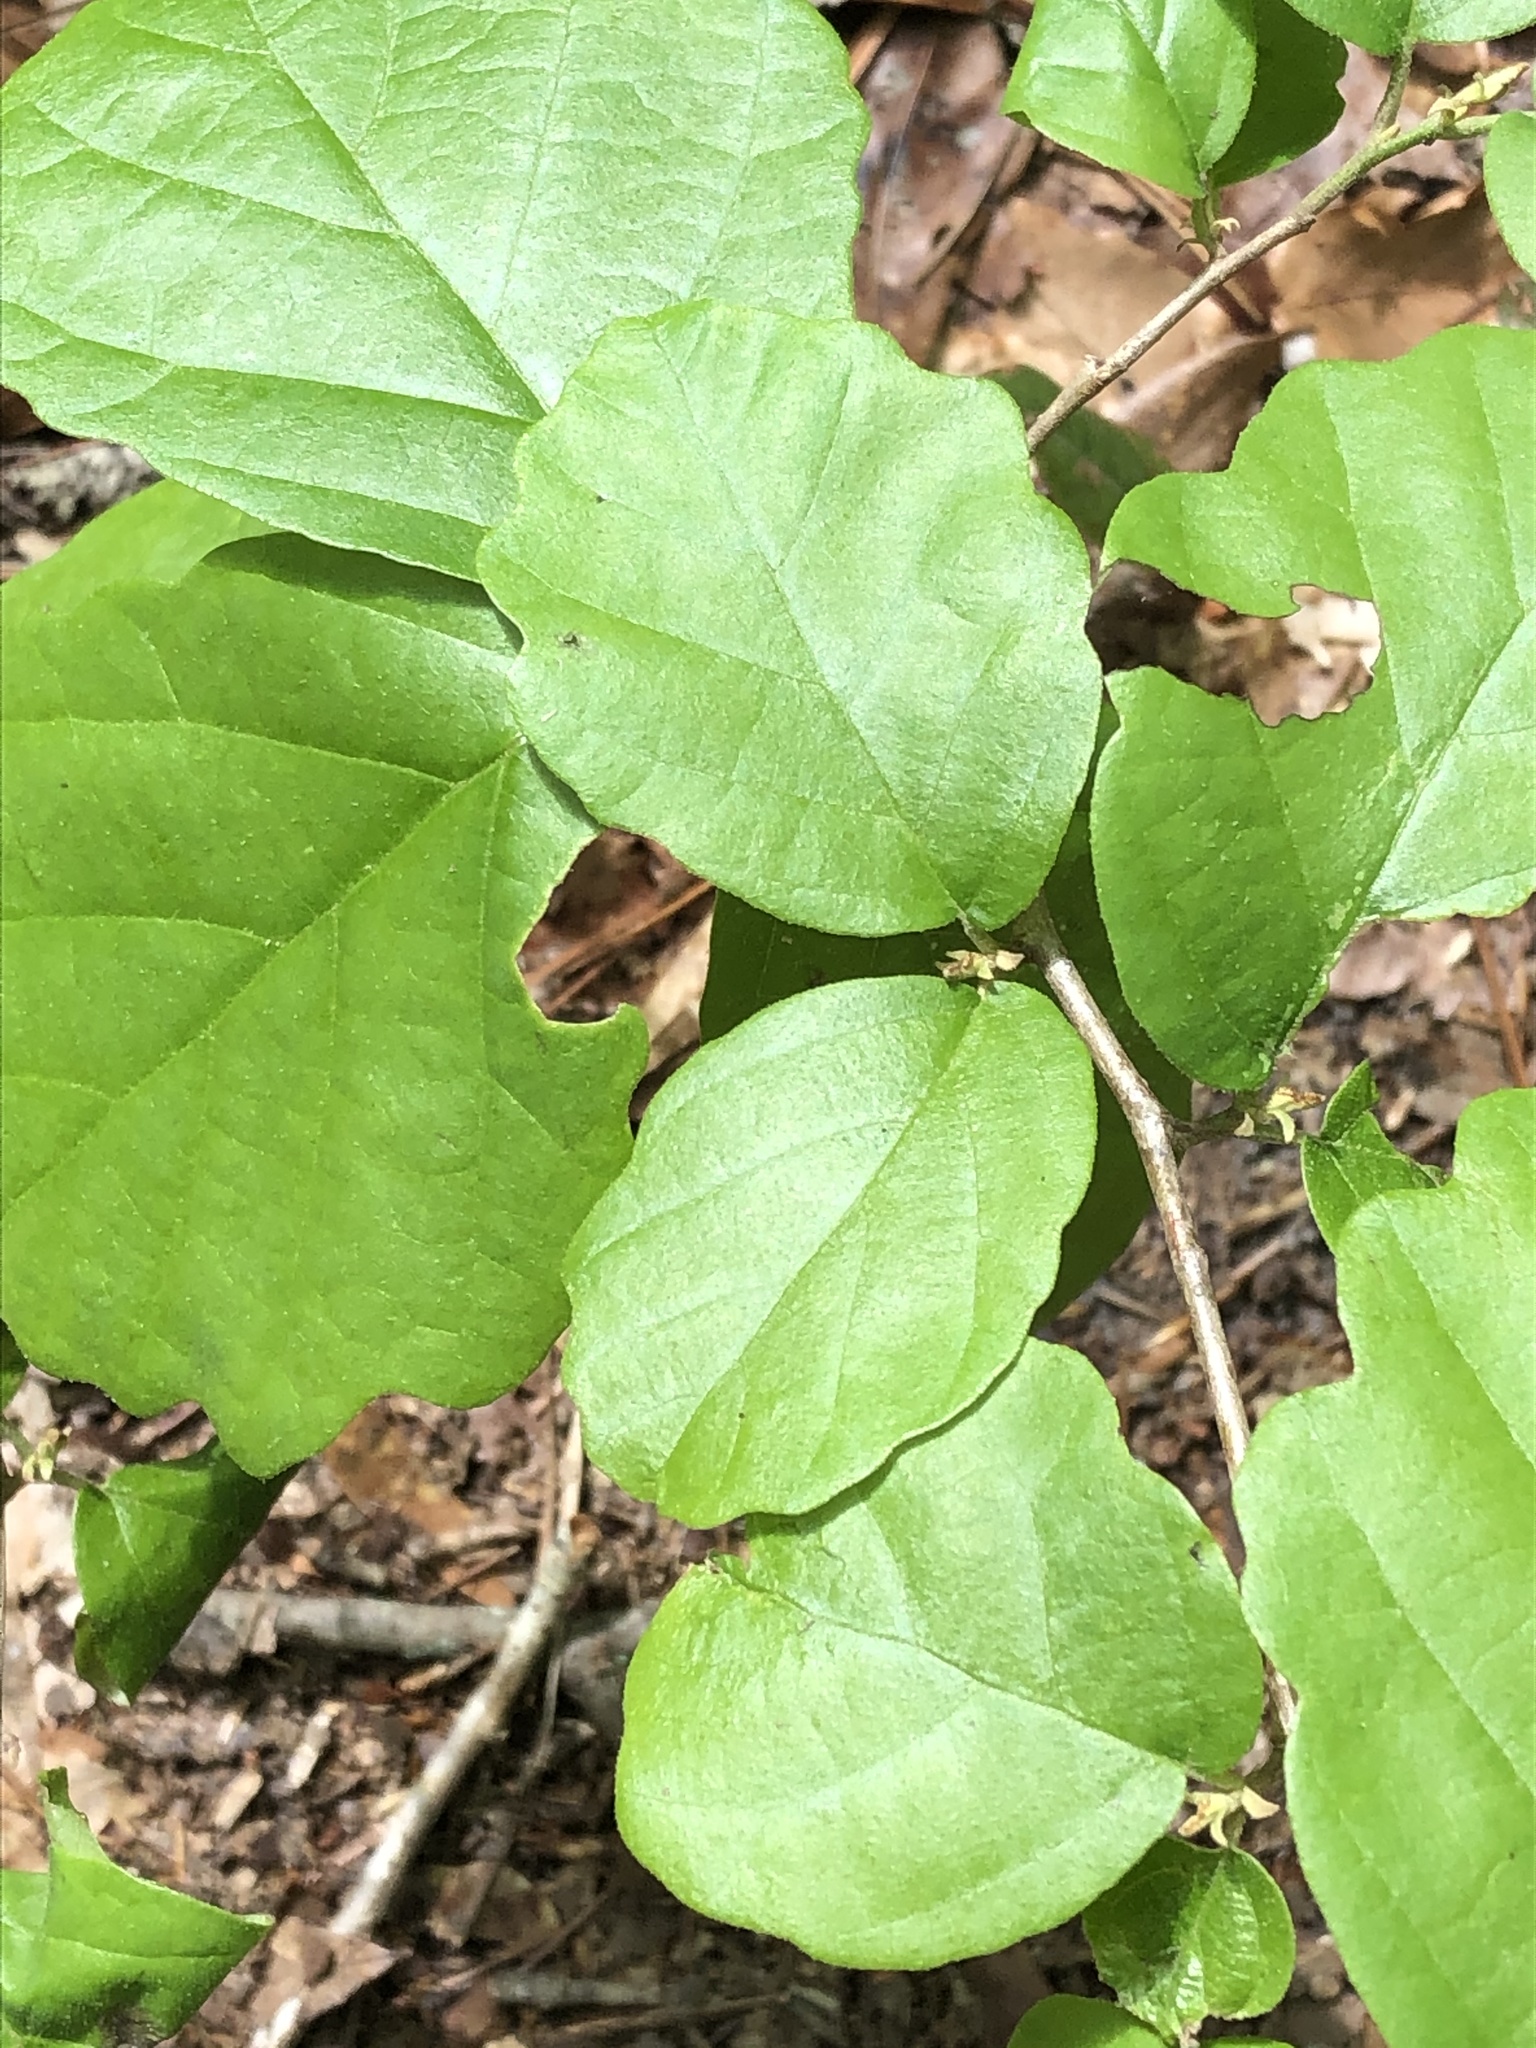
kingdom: Plantae
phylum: Tracheophyta
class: Magnoliopsida
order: Saxifragales
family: Hamamelidaceae
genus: Hamamelis
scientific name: Hamamelis virginiana
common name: Witch-hazel
